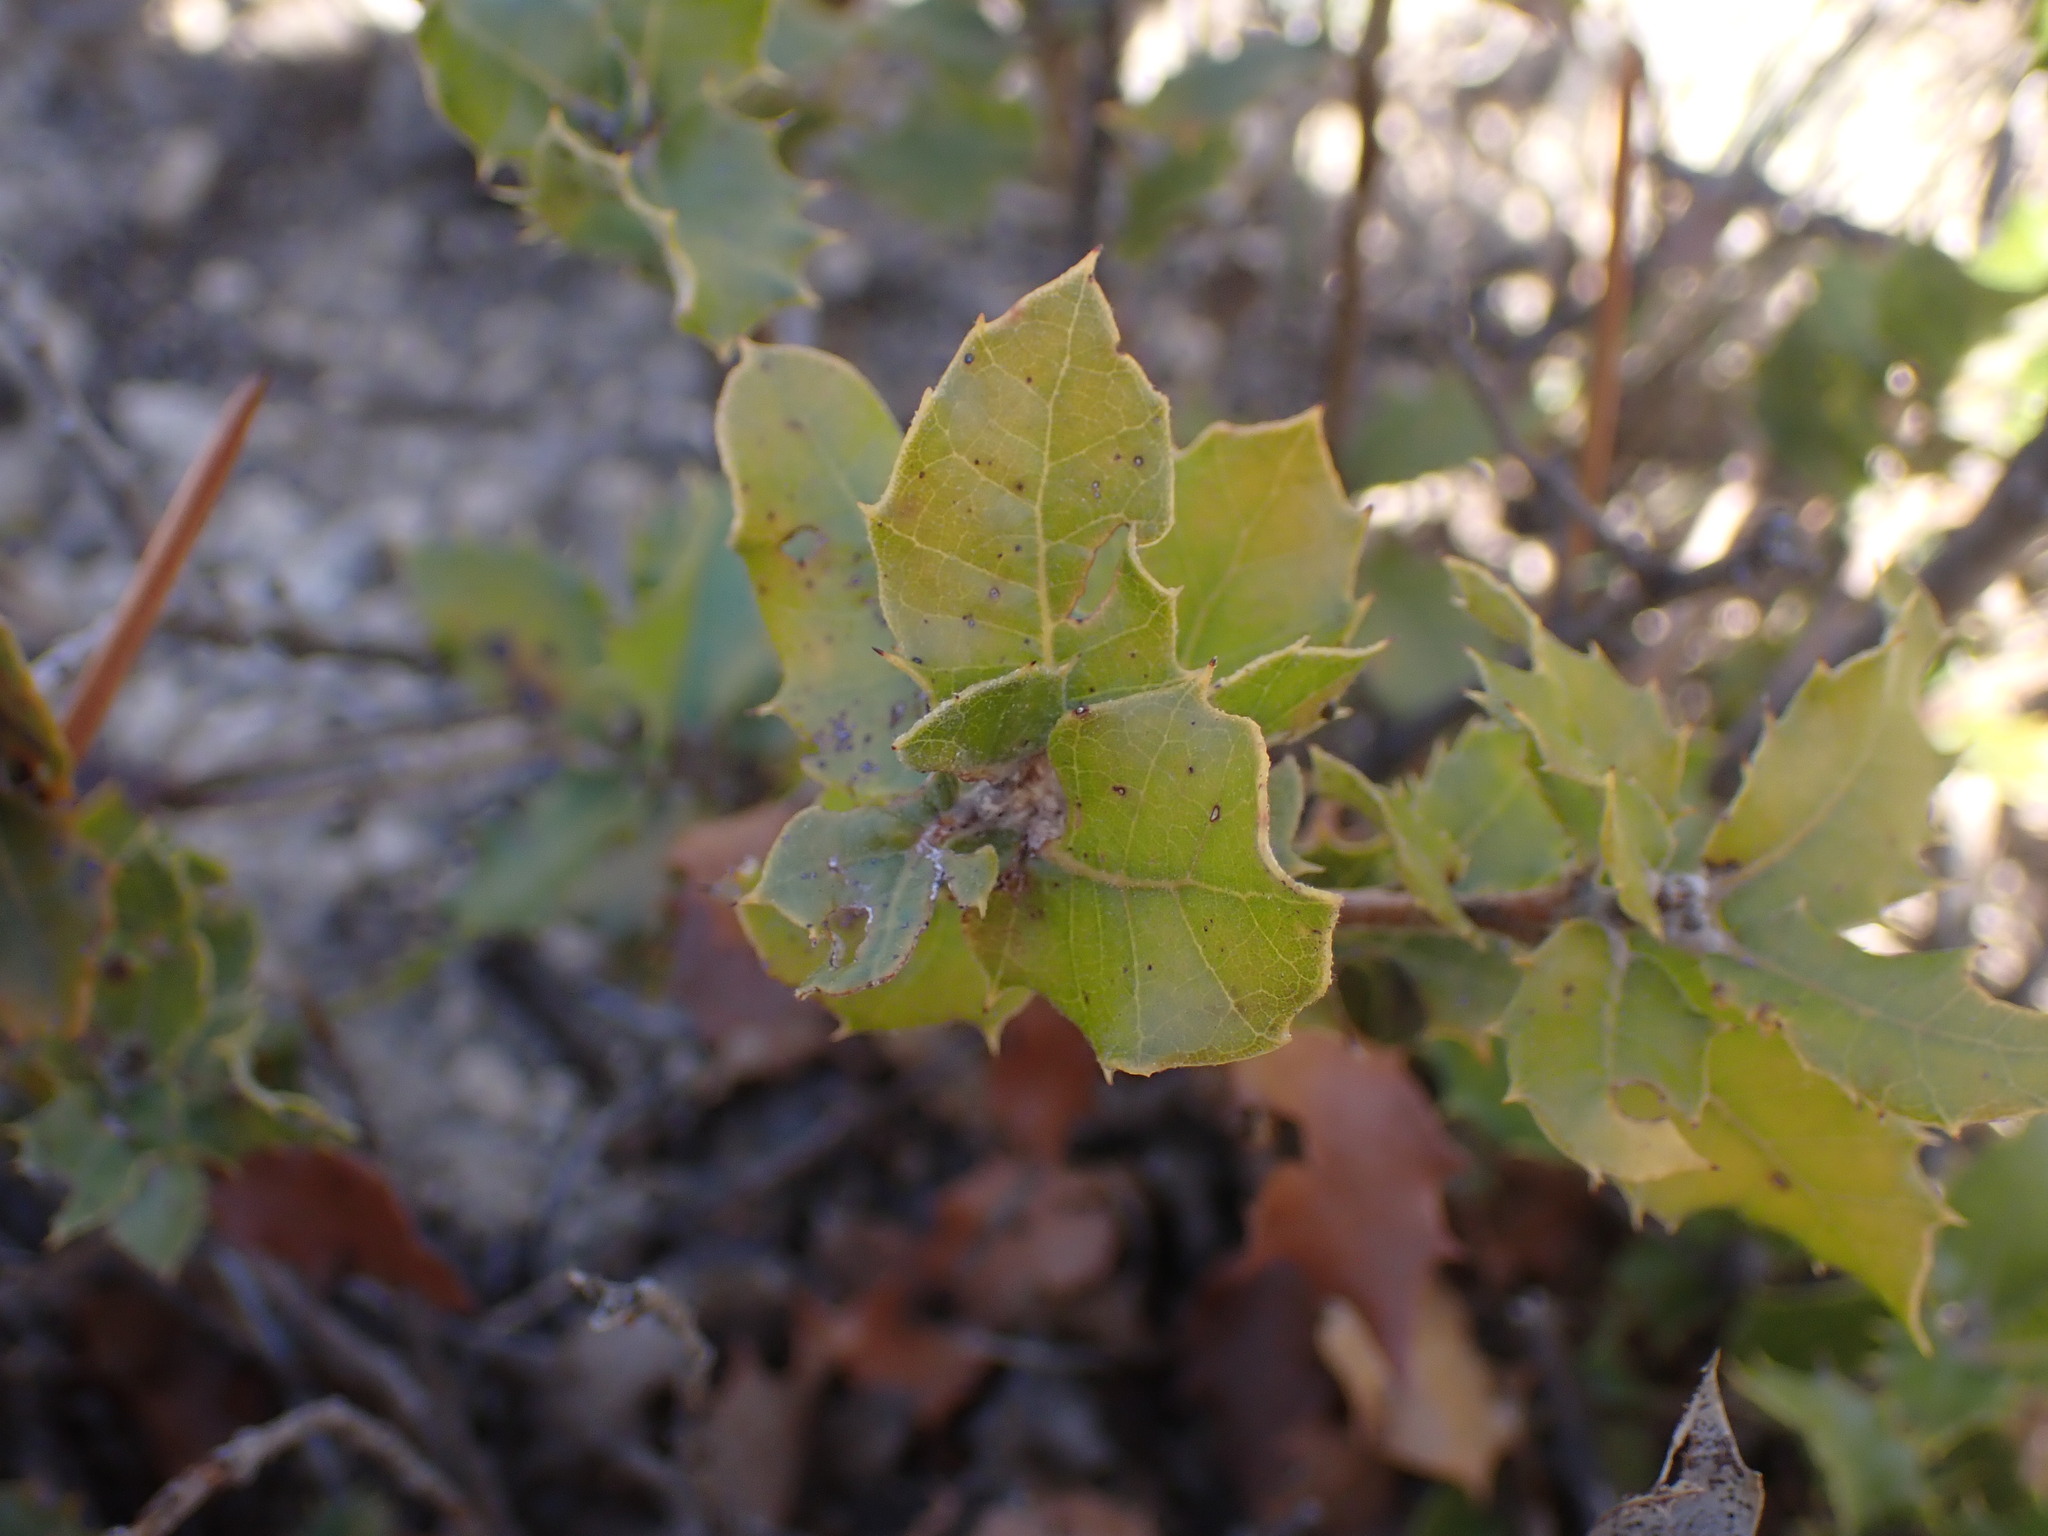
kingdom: Plantae
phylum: Tracheophyta
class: Magnoliopsida
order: Fagales
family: Fagaceae
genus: Quercus
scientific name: Quercus coccifera
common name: Kermes oak
